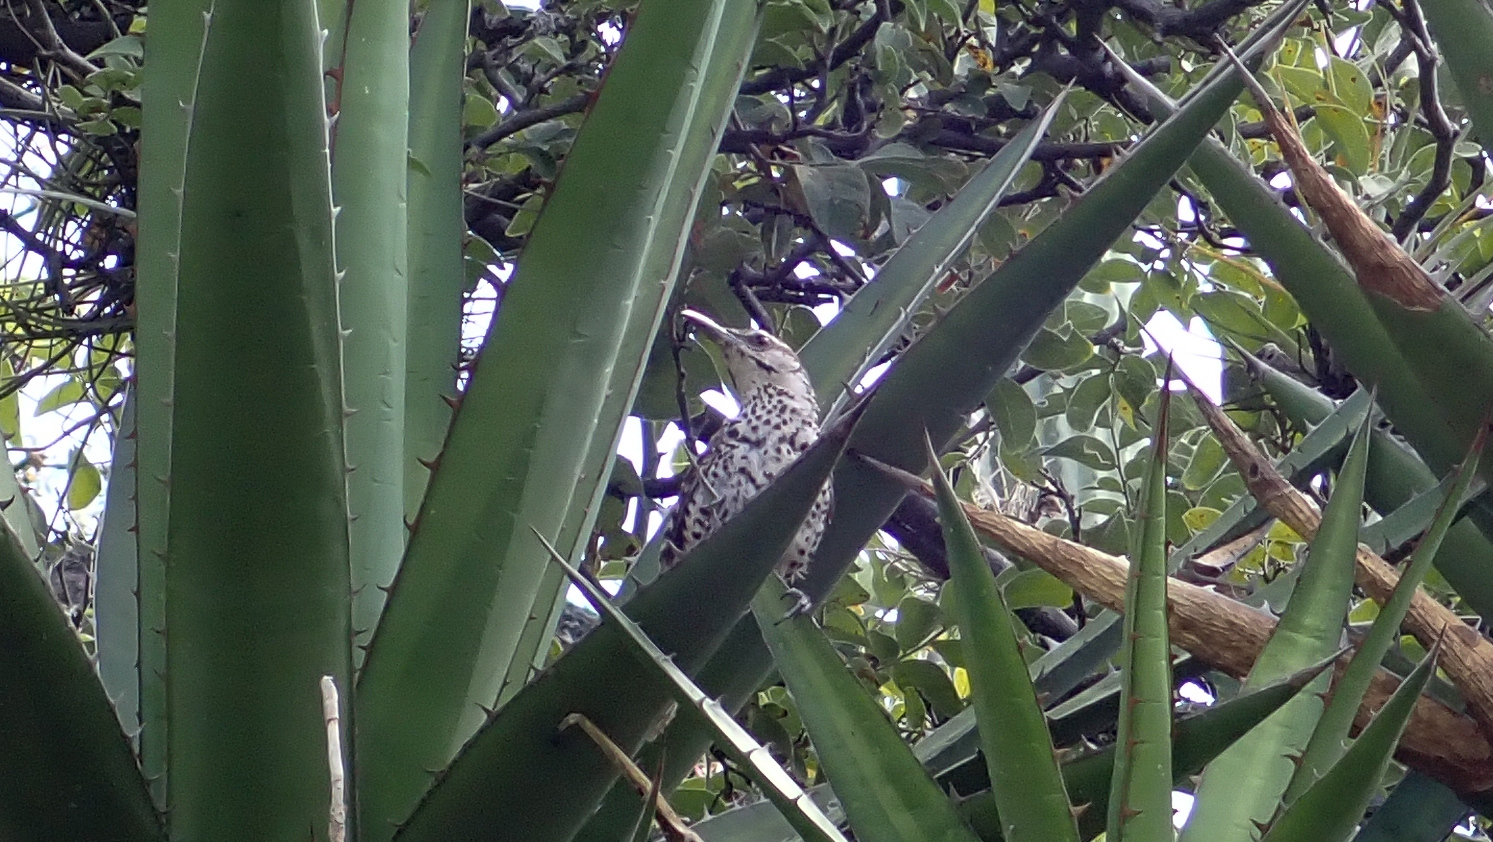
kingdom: Animalia
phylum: Chordata
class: Aves
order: Passeriformes
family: Troglodytidae
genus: Campylorhynchus
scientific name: Campylorhynchus jocosus
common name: Boucard's wren
